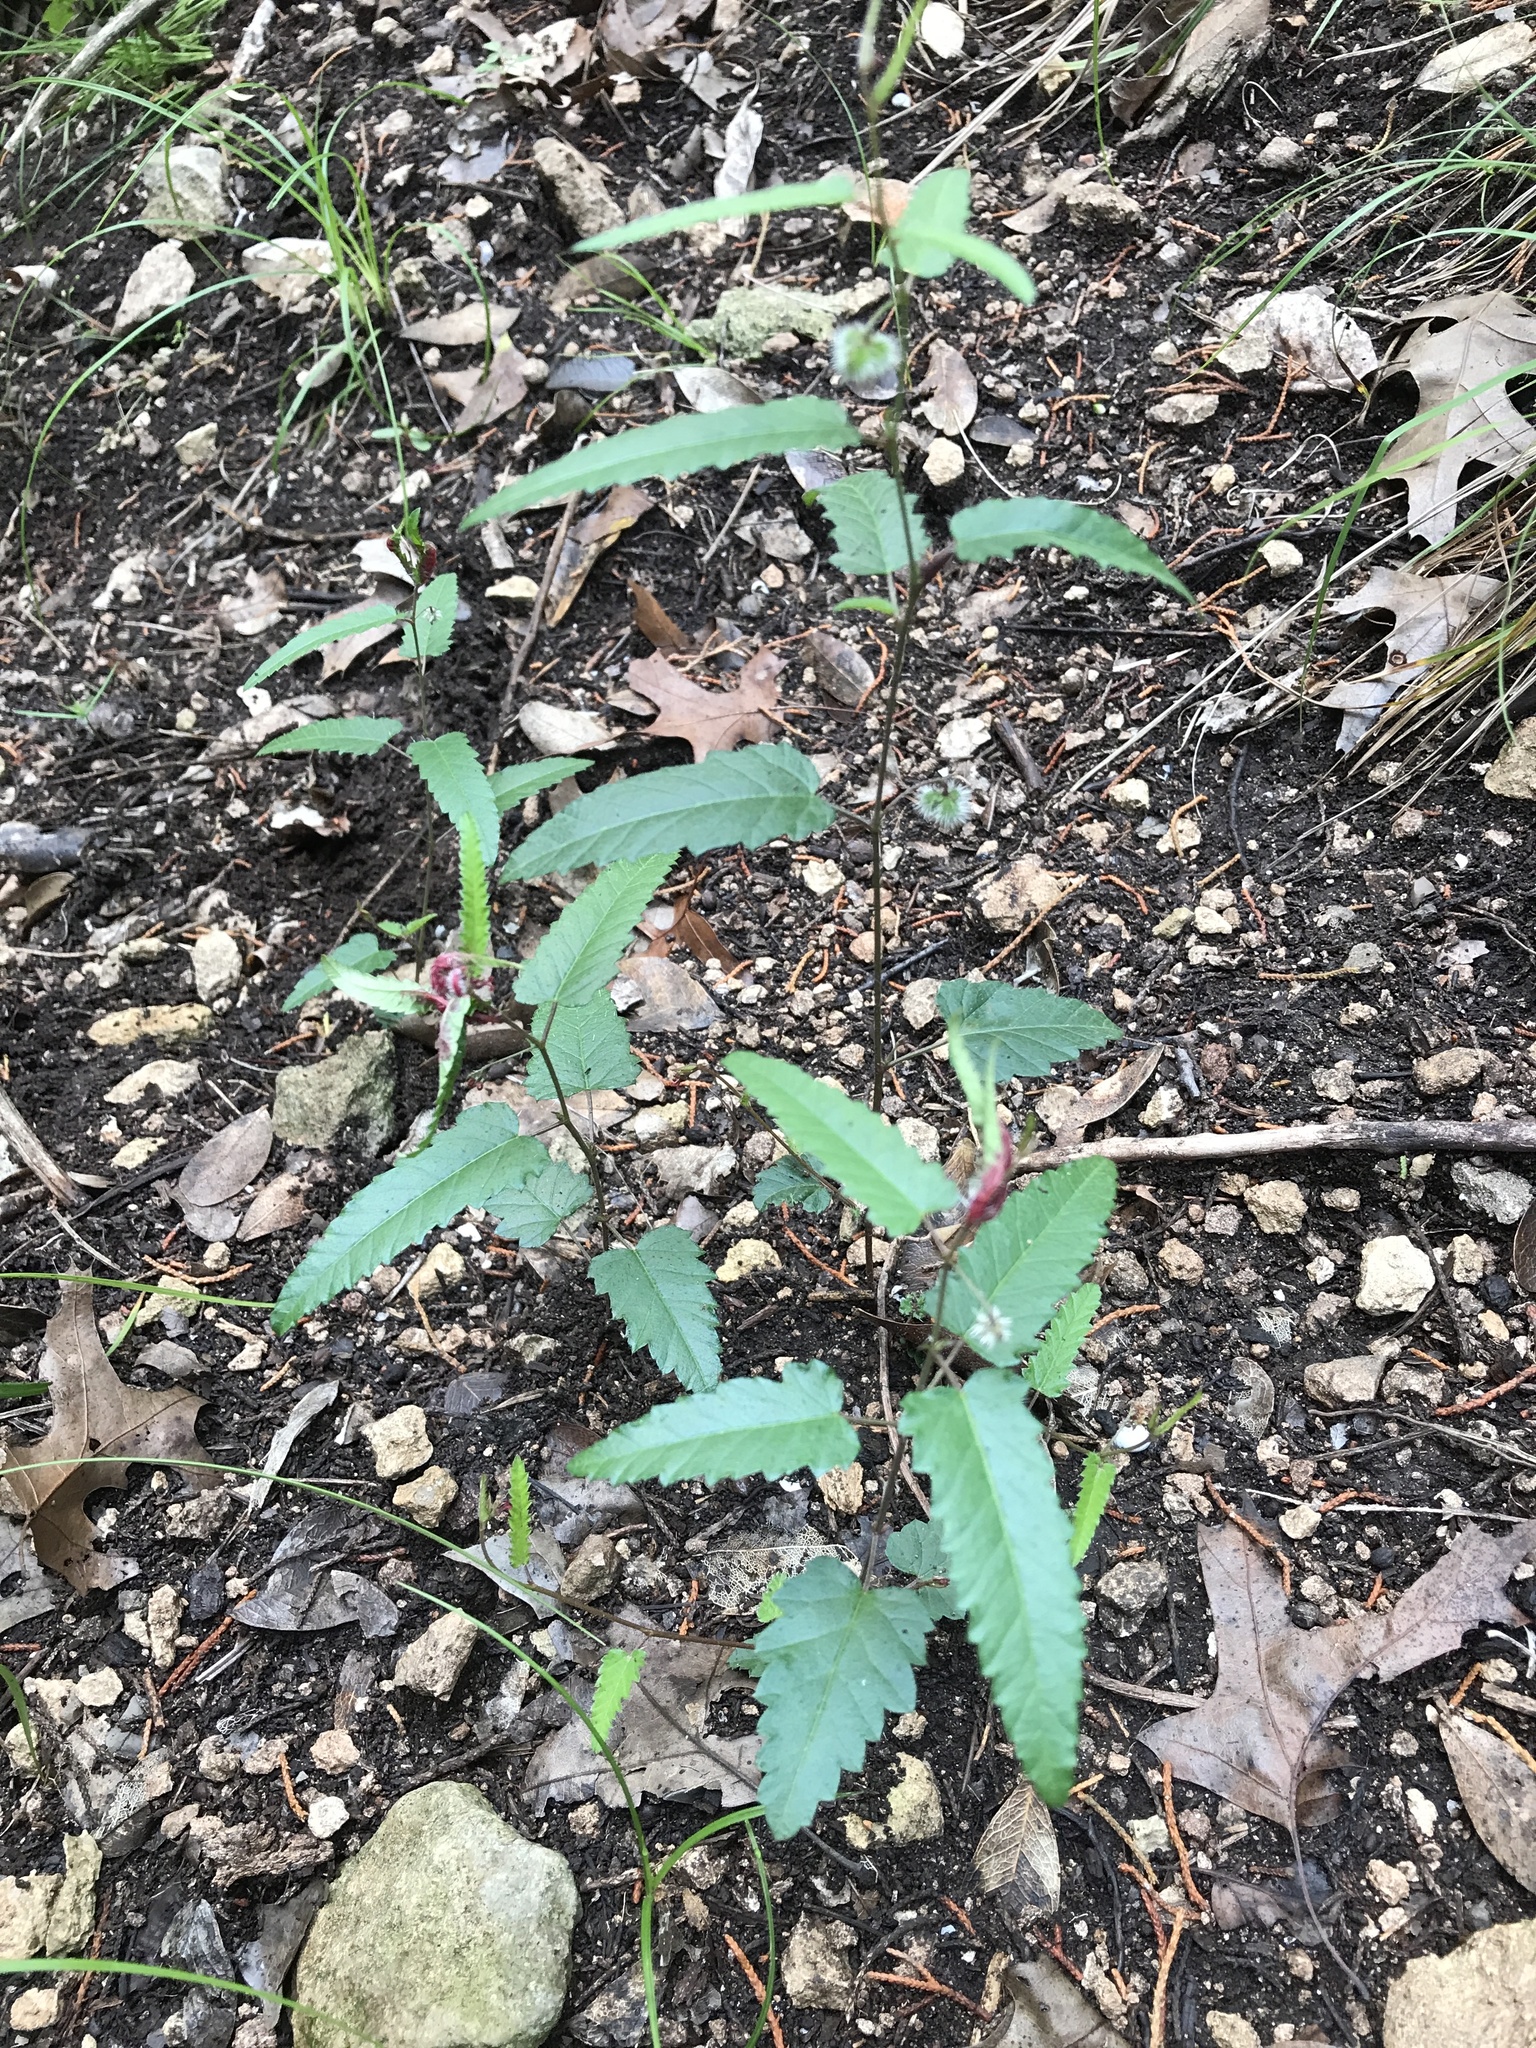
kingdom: Plantae
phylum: Tracheophyta
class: Magnoliopsida
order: Malpighiales
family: Euphorbiaceae
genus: Tragia
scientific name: Tragia ramosa
